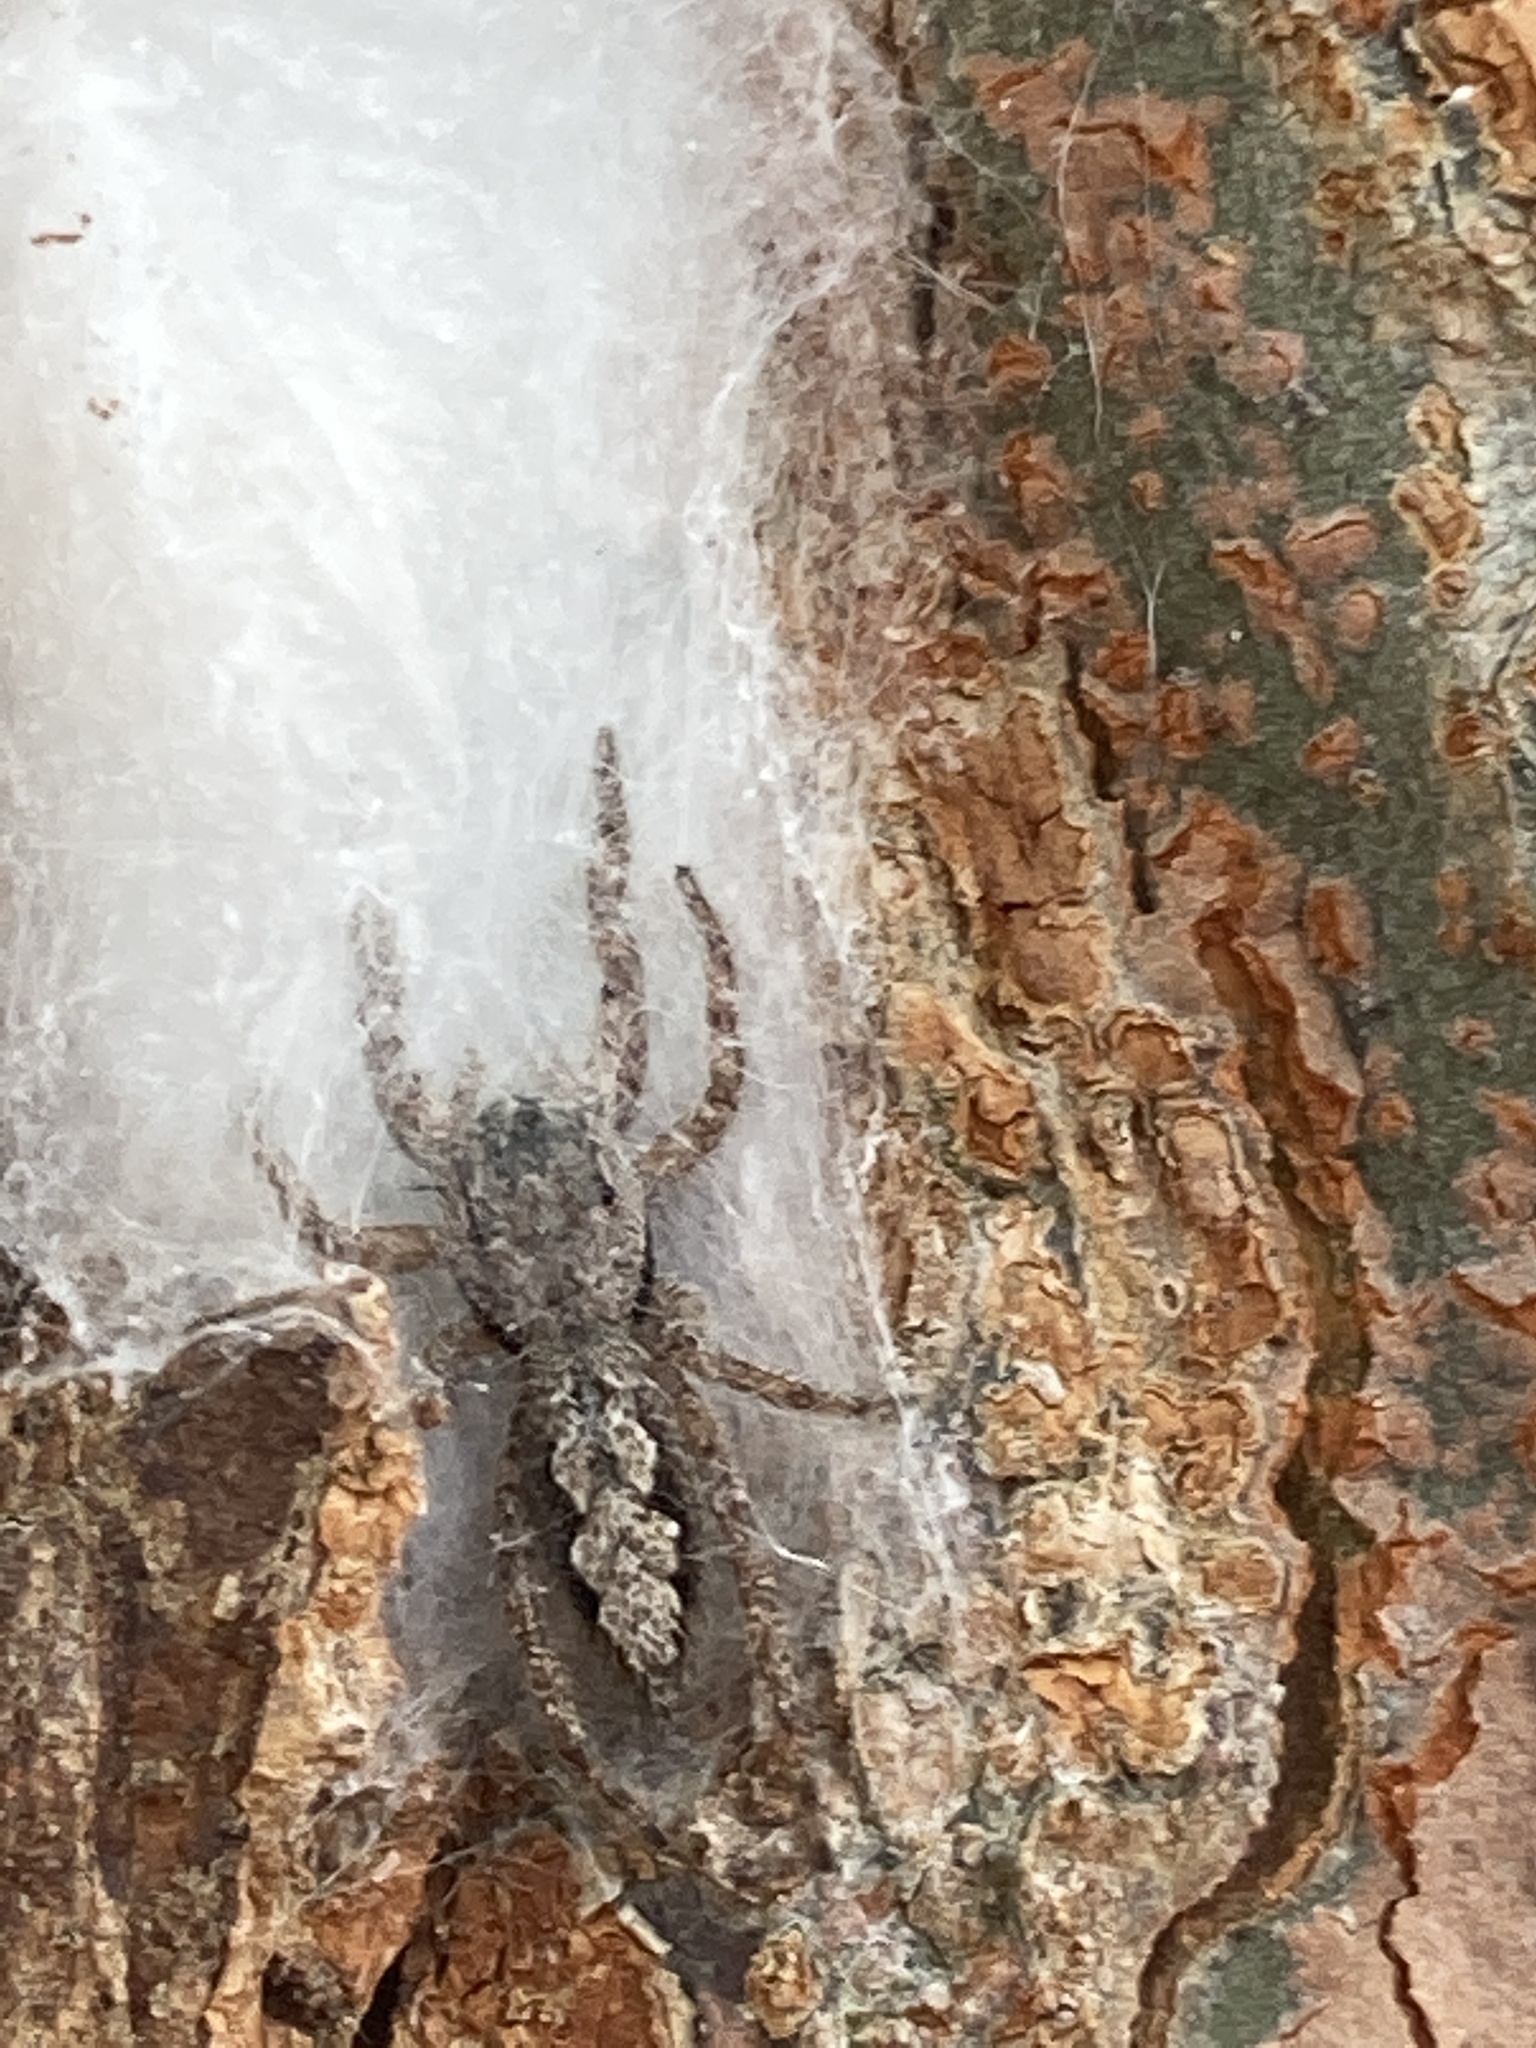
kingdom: Animalia
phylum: Arthropoda
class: Arachnida
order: Araneae
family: Salticidae
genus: Platycryptus
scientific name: Platycryptus undatus
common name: Tan jumping spider
